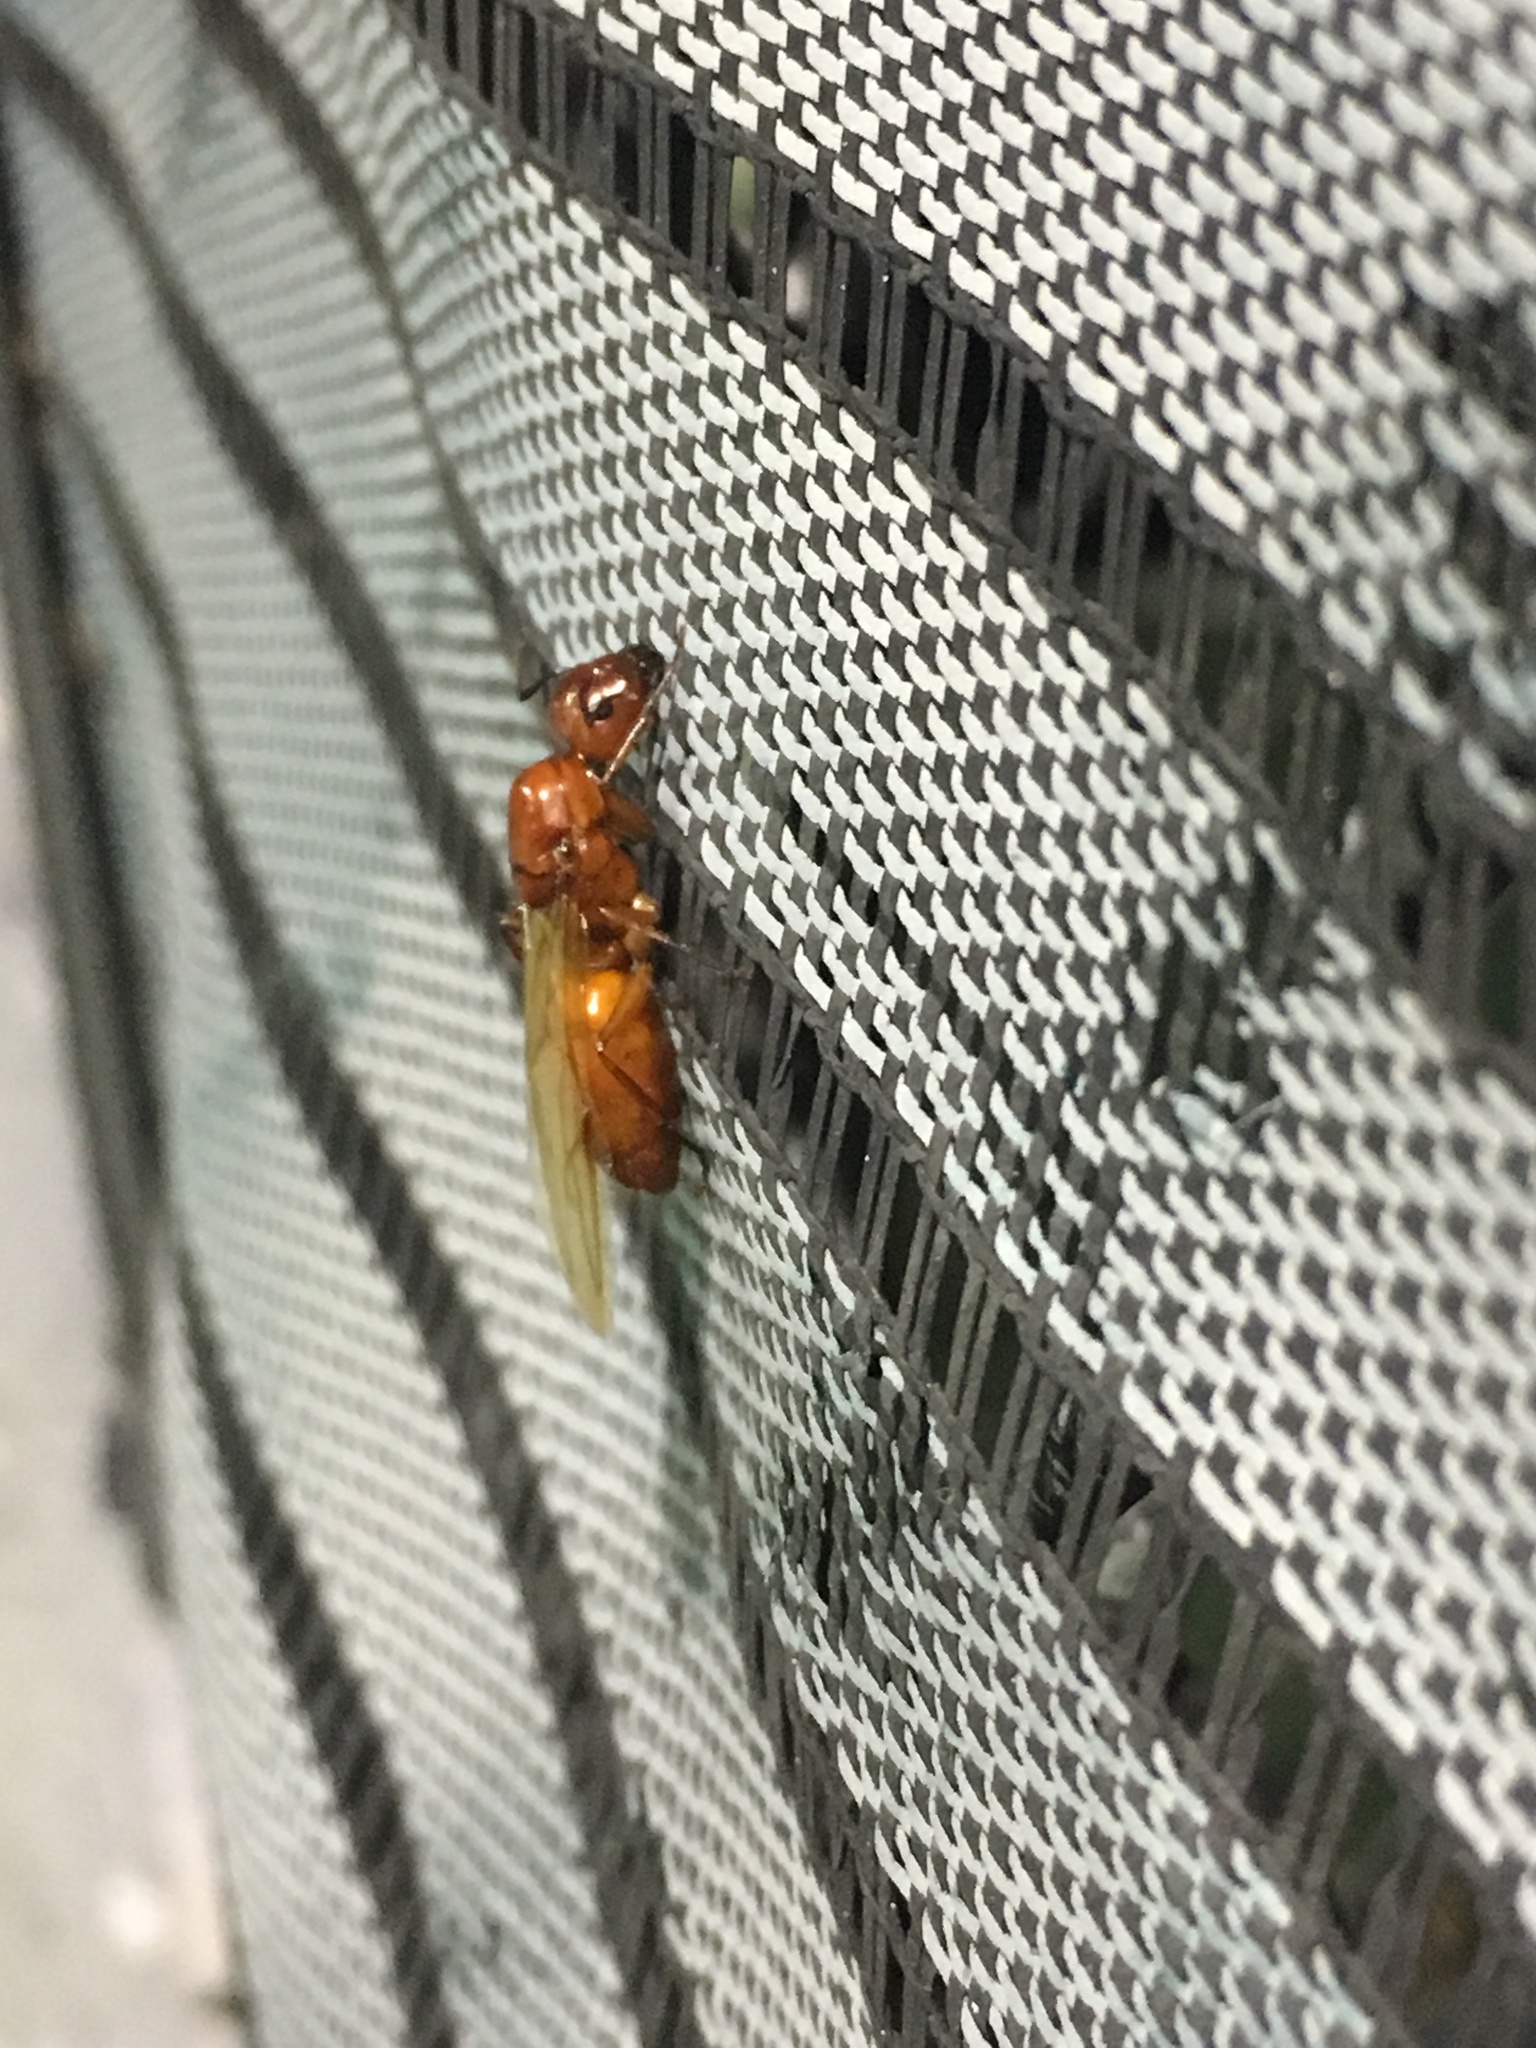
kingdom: Animalia
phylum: Arthropoda
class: Insecta
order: Hymenoptera
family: Formicidae
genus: Camponotus
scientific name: Camponotus castaneus
